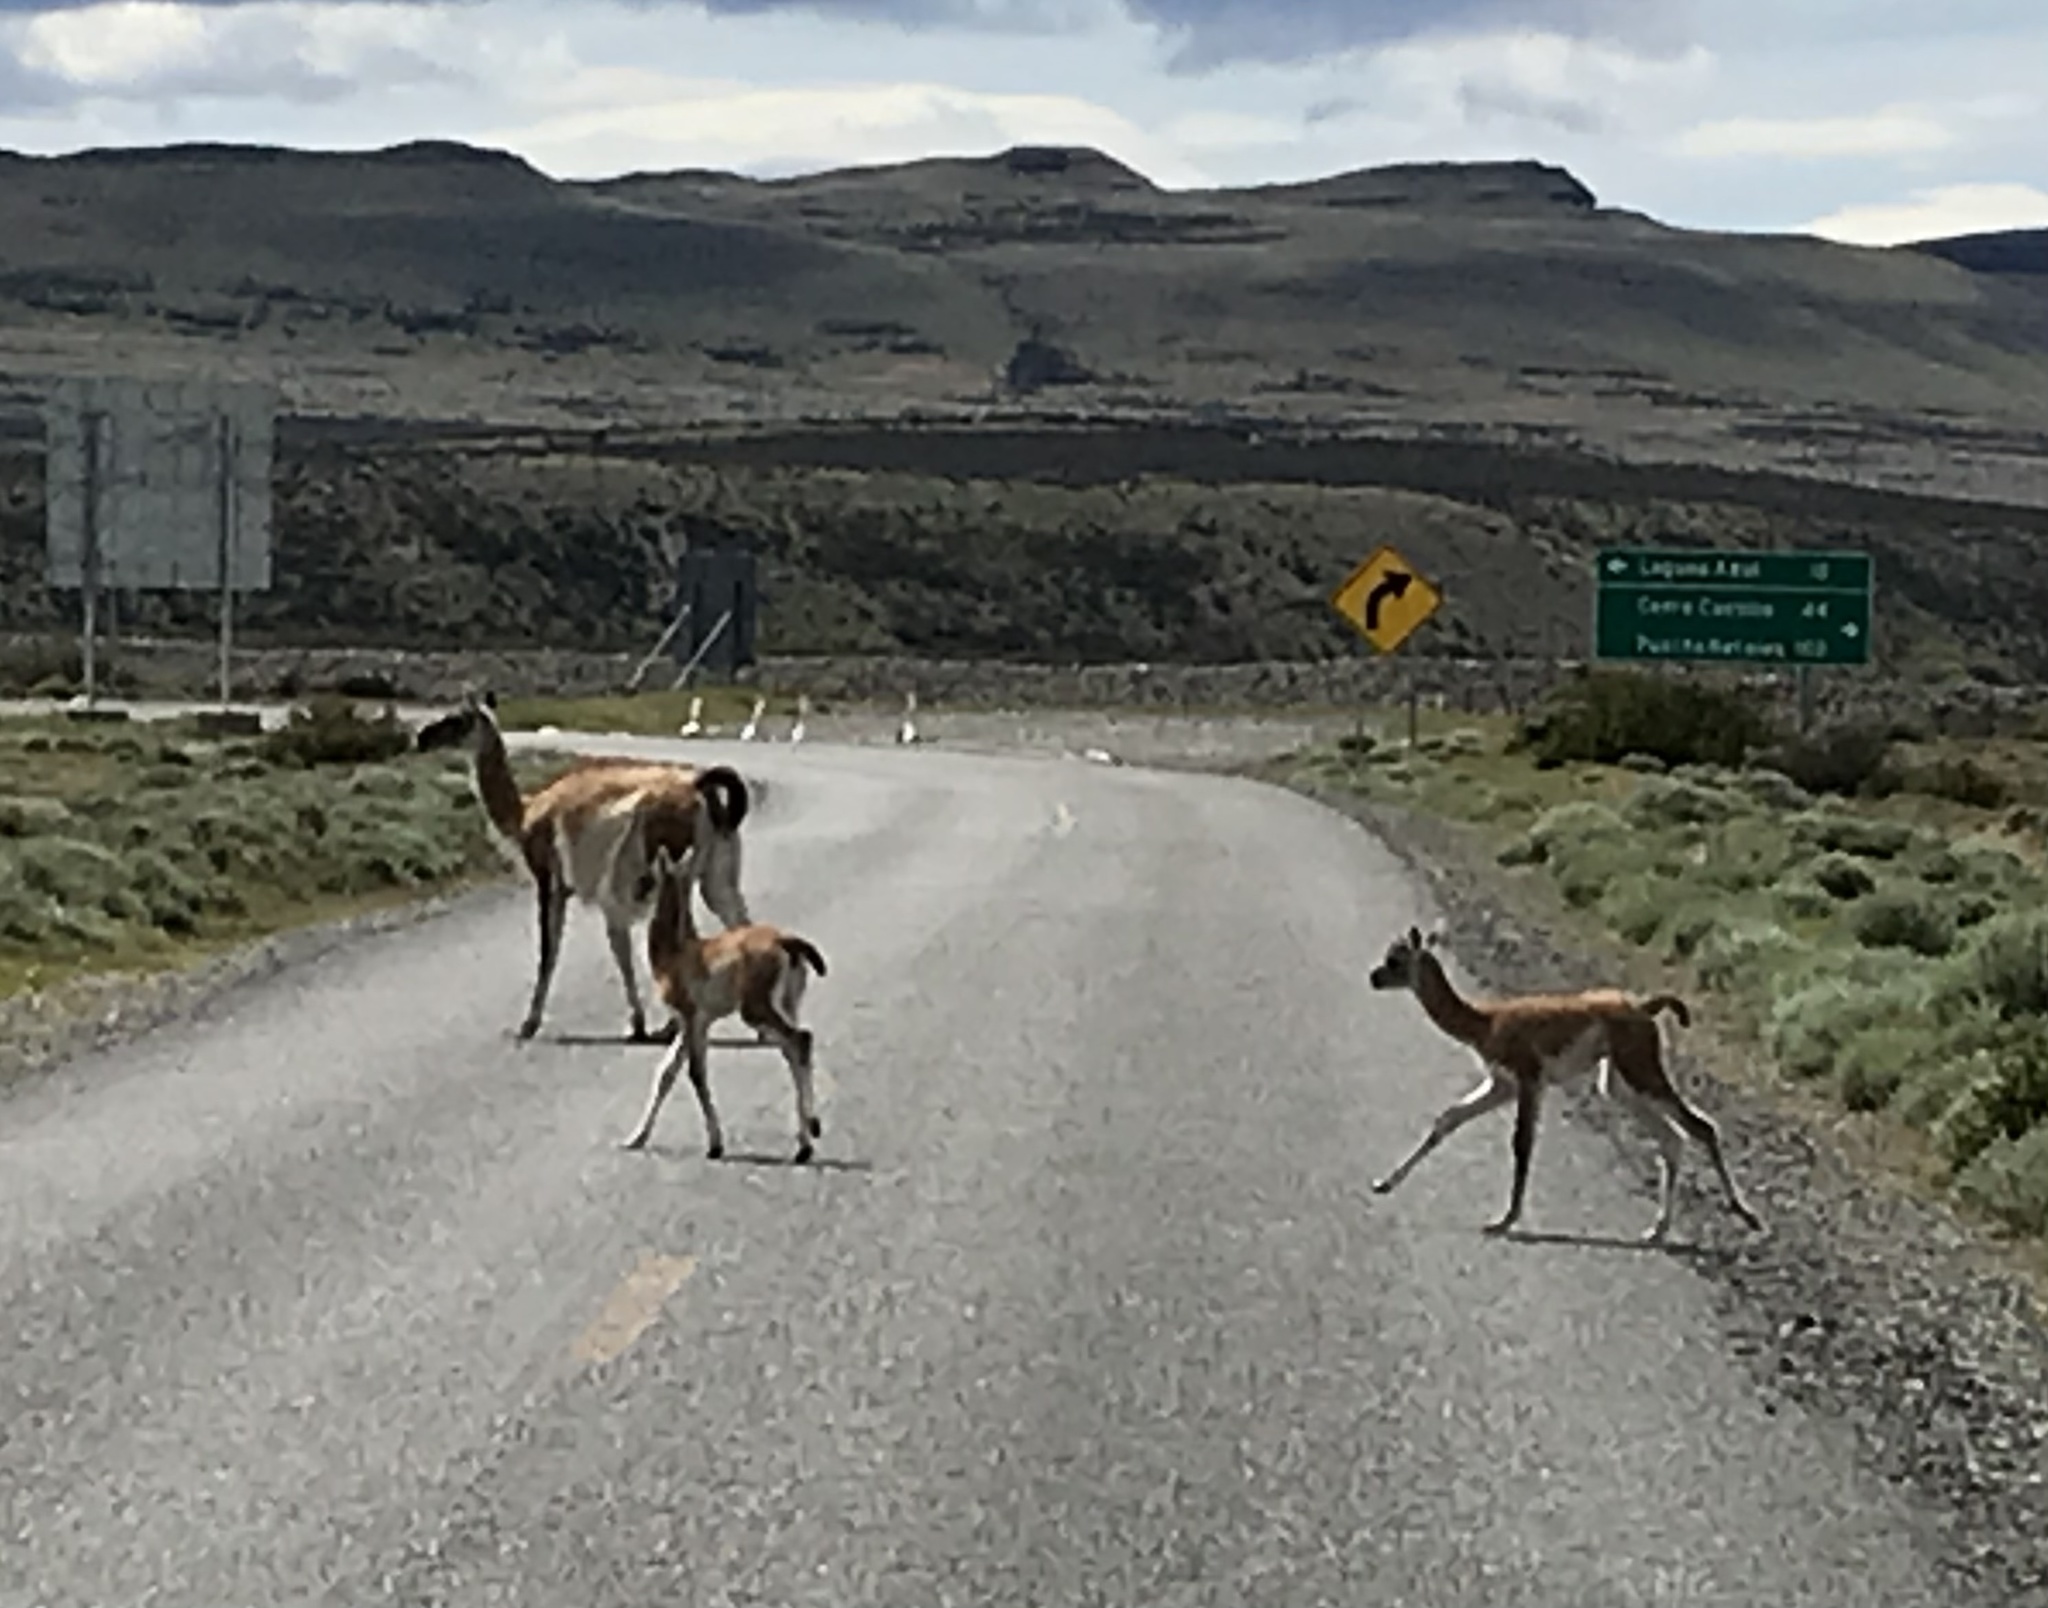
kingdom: Animalia
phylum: Chordata
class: Mammalia
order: Artiodactyla
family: Camelidae
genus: Lama
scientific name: Lama glama
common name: Llama
